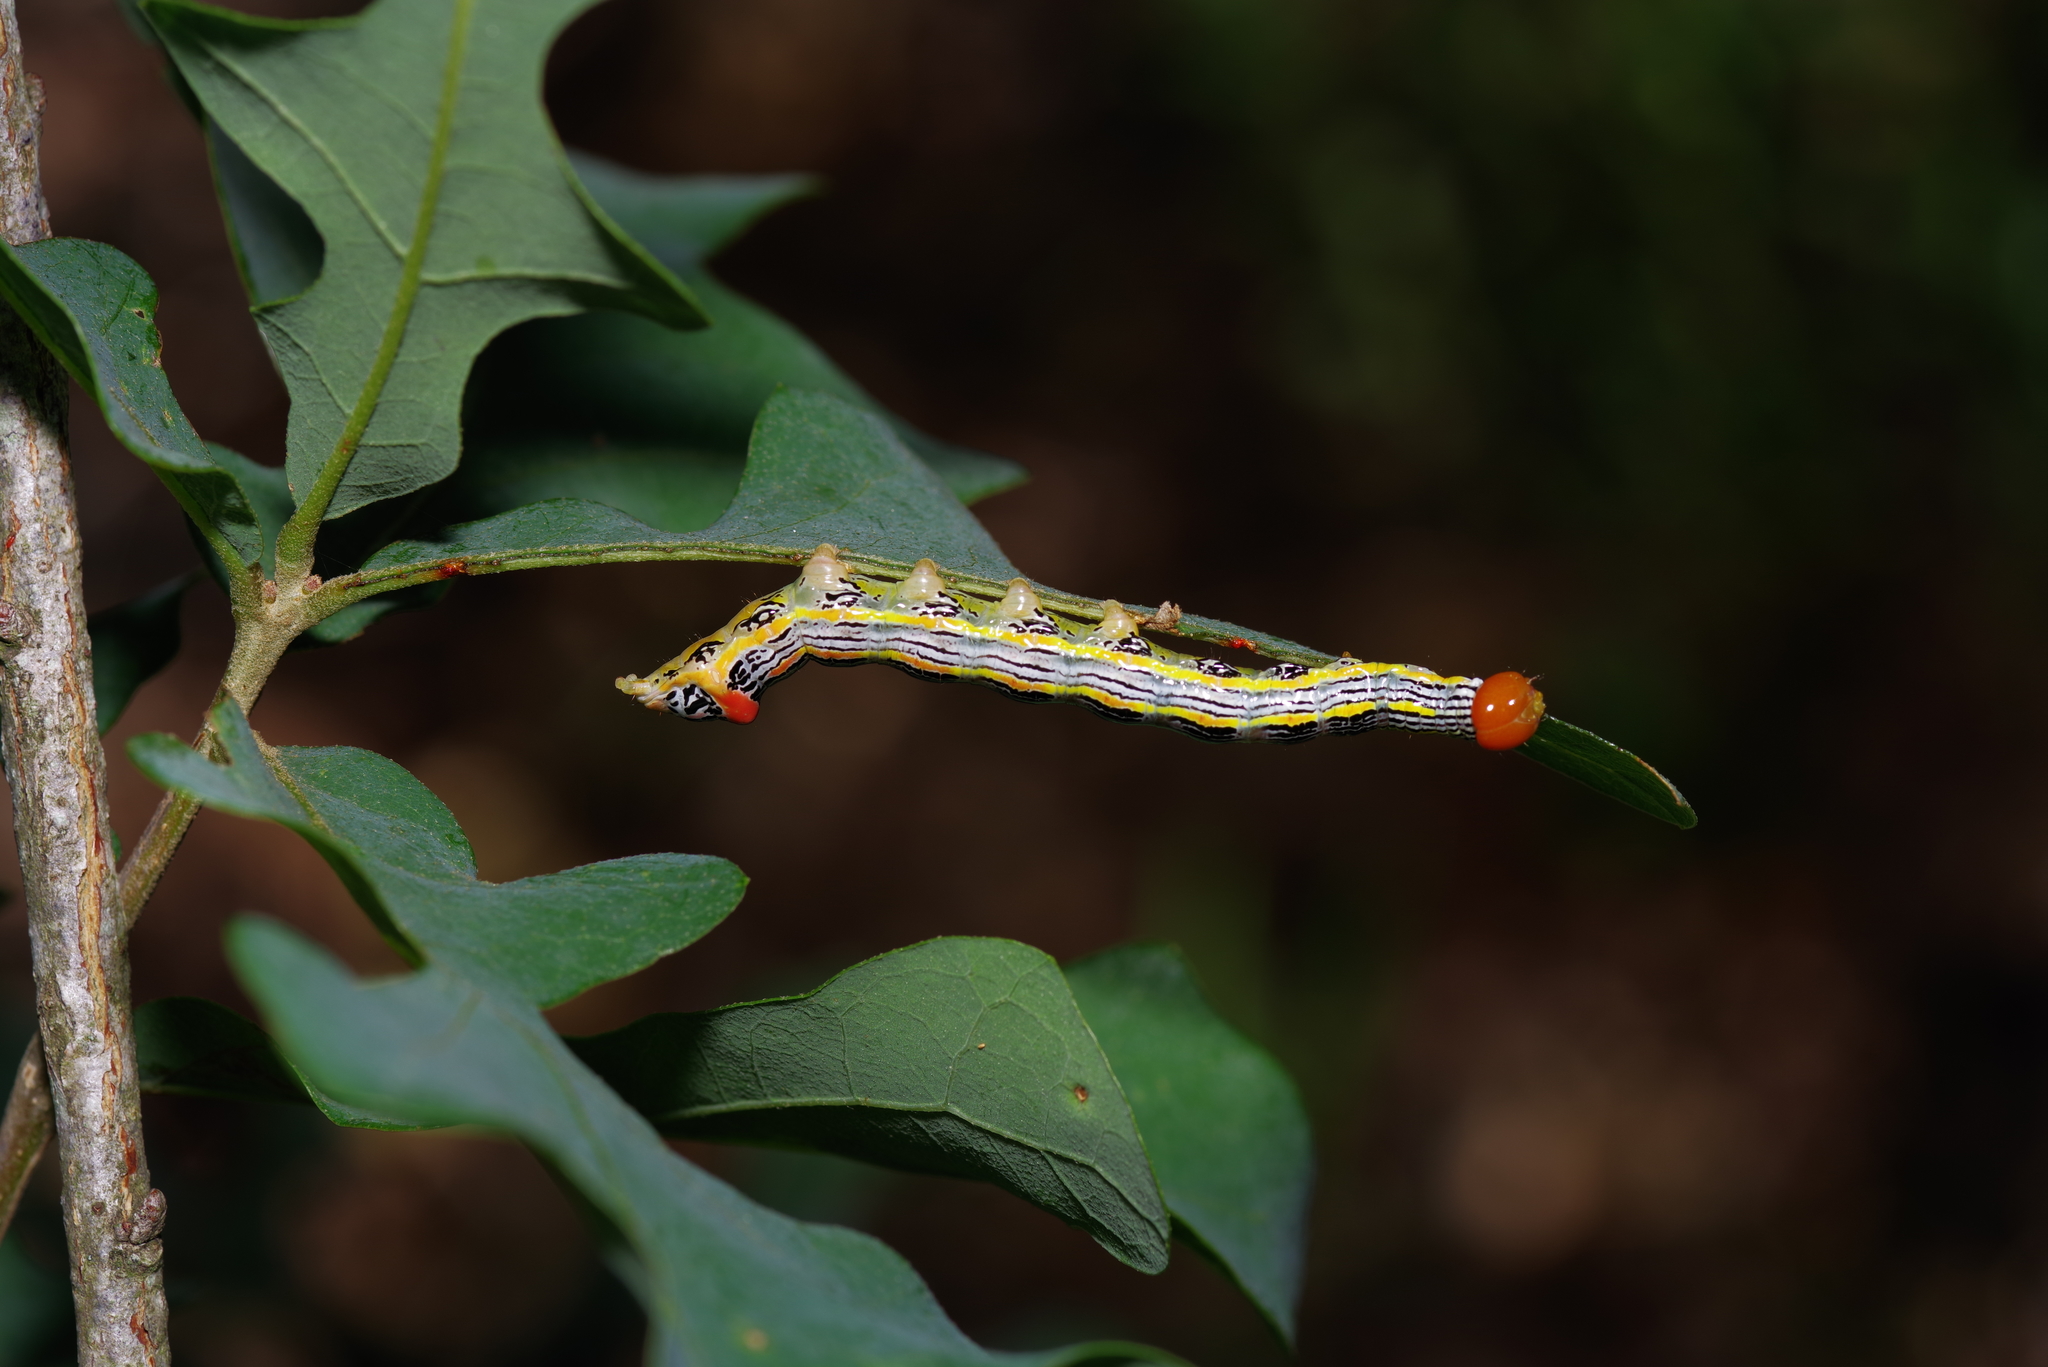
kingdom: Animalia
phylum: Arthropoda
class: Insecta
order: Lepidoptera
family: Notodontidae
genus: Symmerista
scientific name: Symmerista albifrons
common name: White-headed prominent
